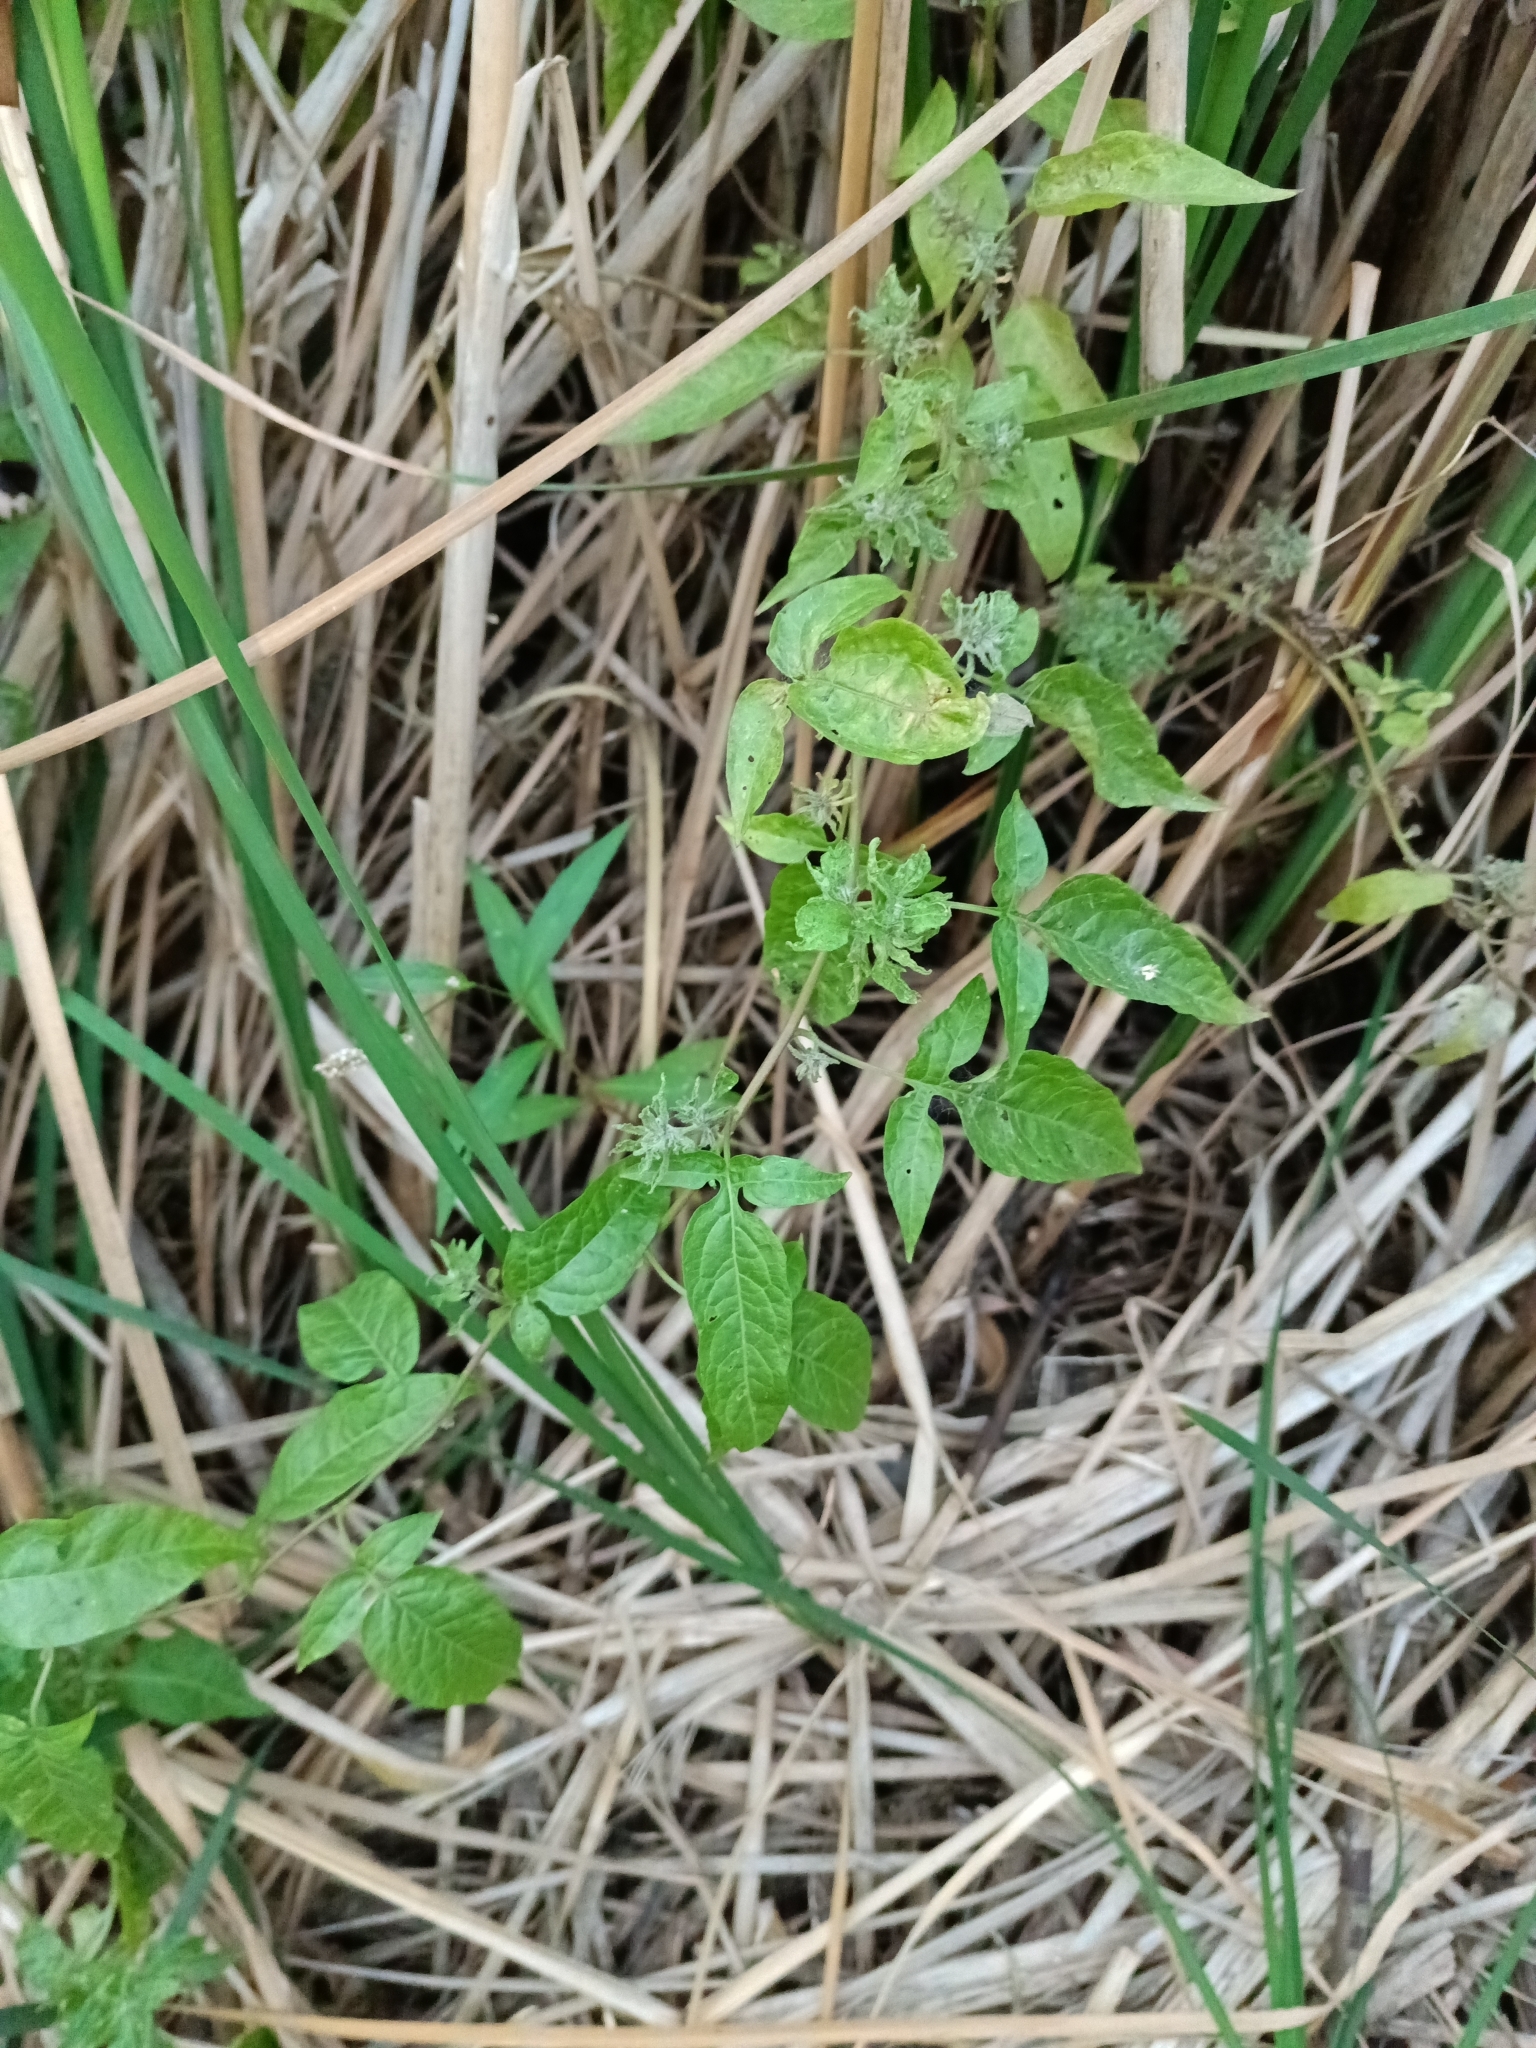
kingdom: Plantae
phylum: Tracheophyta
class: Magnoliopsida
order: Solanales
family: Solanaceae
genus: Solanum
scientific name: Solanum dulcamara
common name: Climbing nightshade
